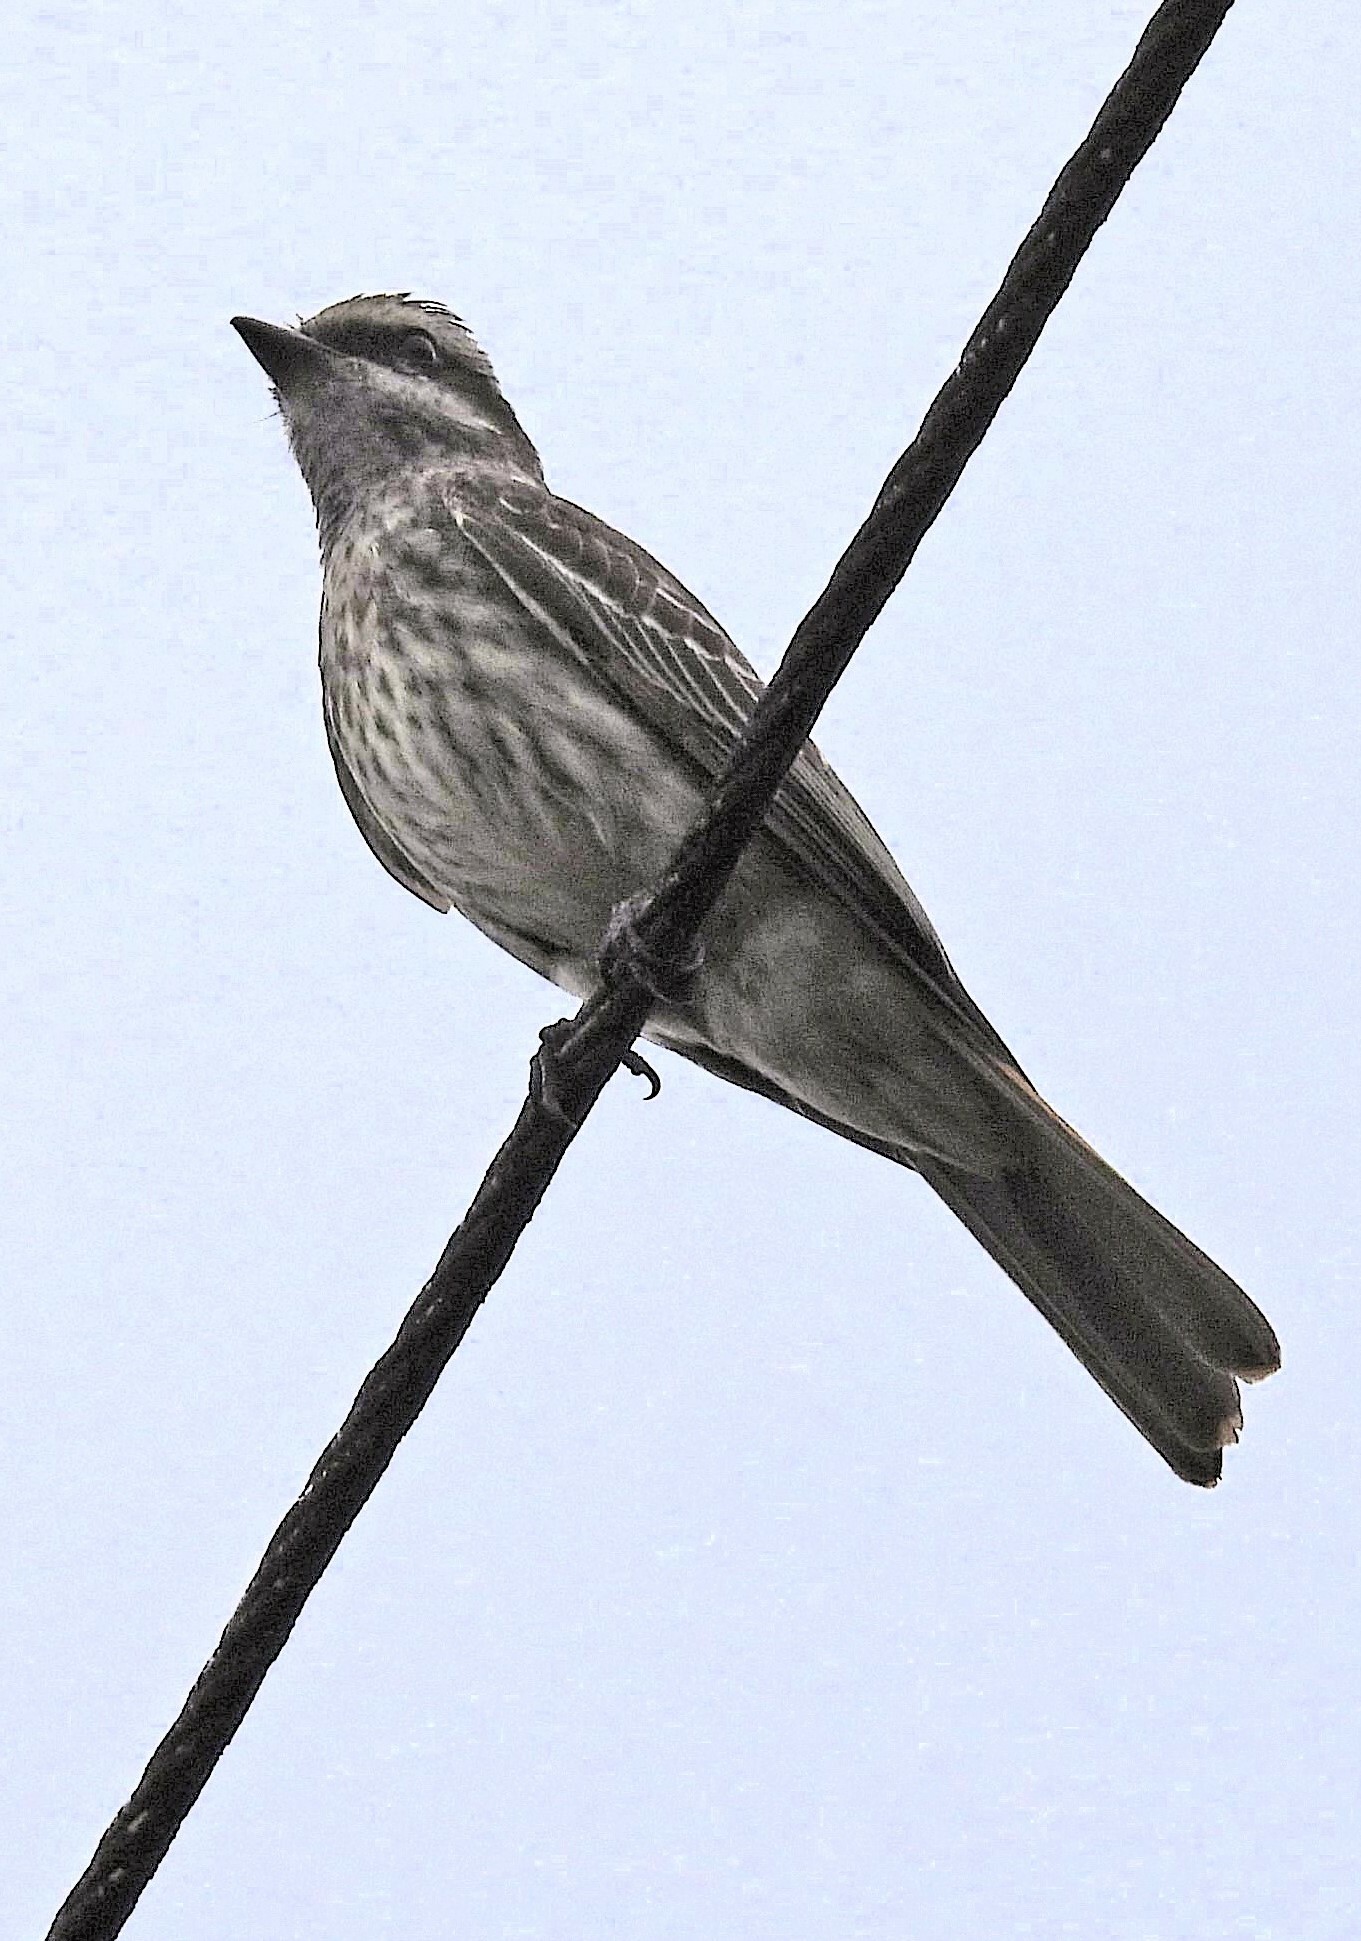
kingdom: Animalia
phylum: Chordata
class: Aves
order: Passeriformes
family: Tyrannidae
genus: Empidonomus
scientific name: Empidonomus varius
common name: Variegated flycatcher
